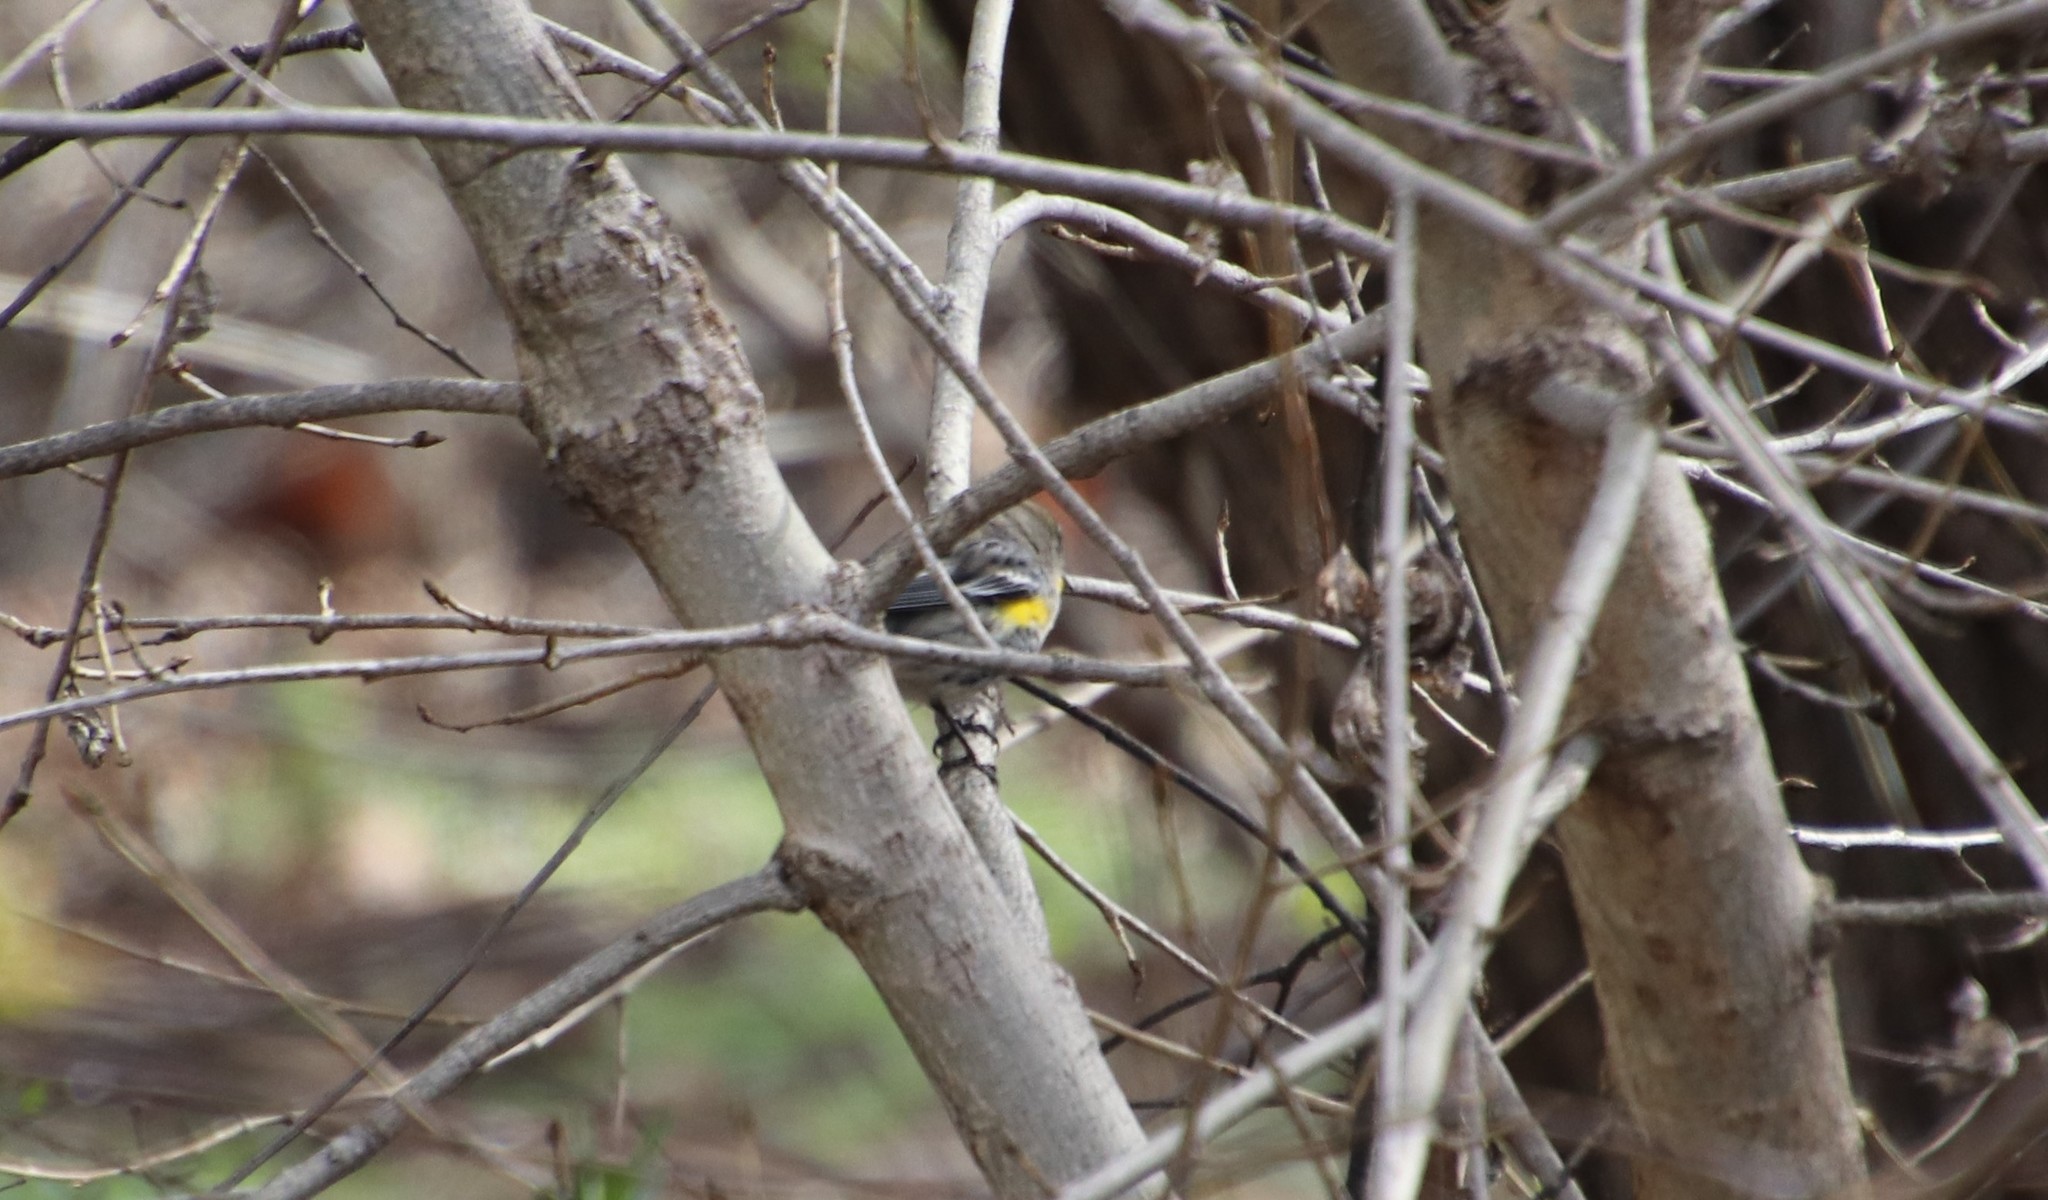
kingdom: Animalia
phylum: Chordata
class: Aves
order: Passeriformes
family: Parulidae
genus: Setophaga
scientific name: Setophaga coronata
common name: Myrtle warbler
